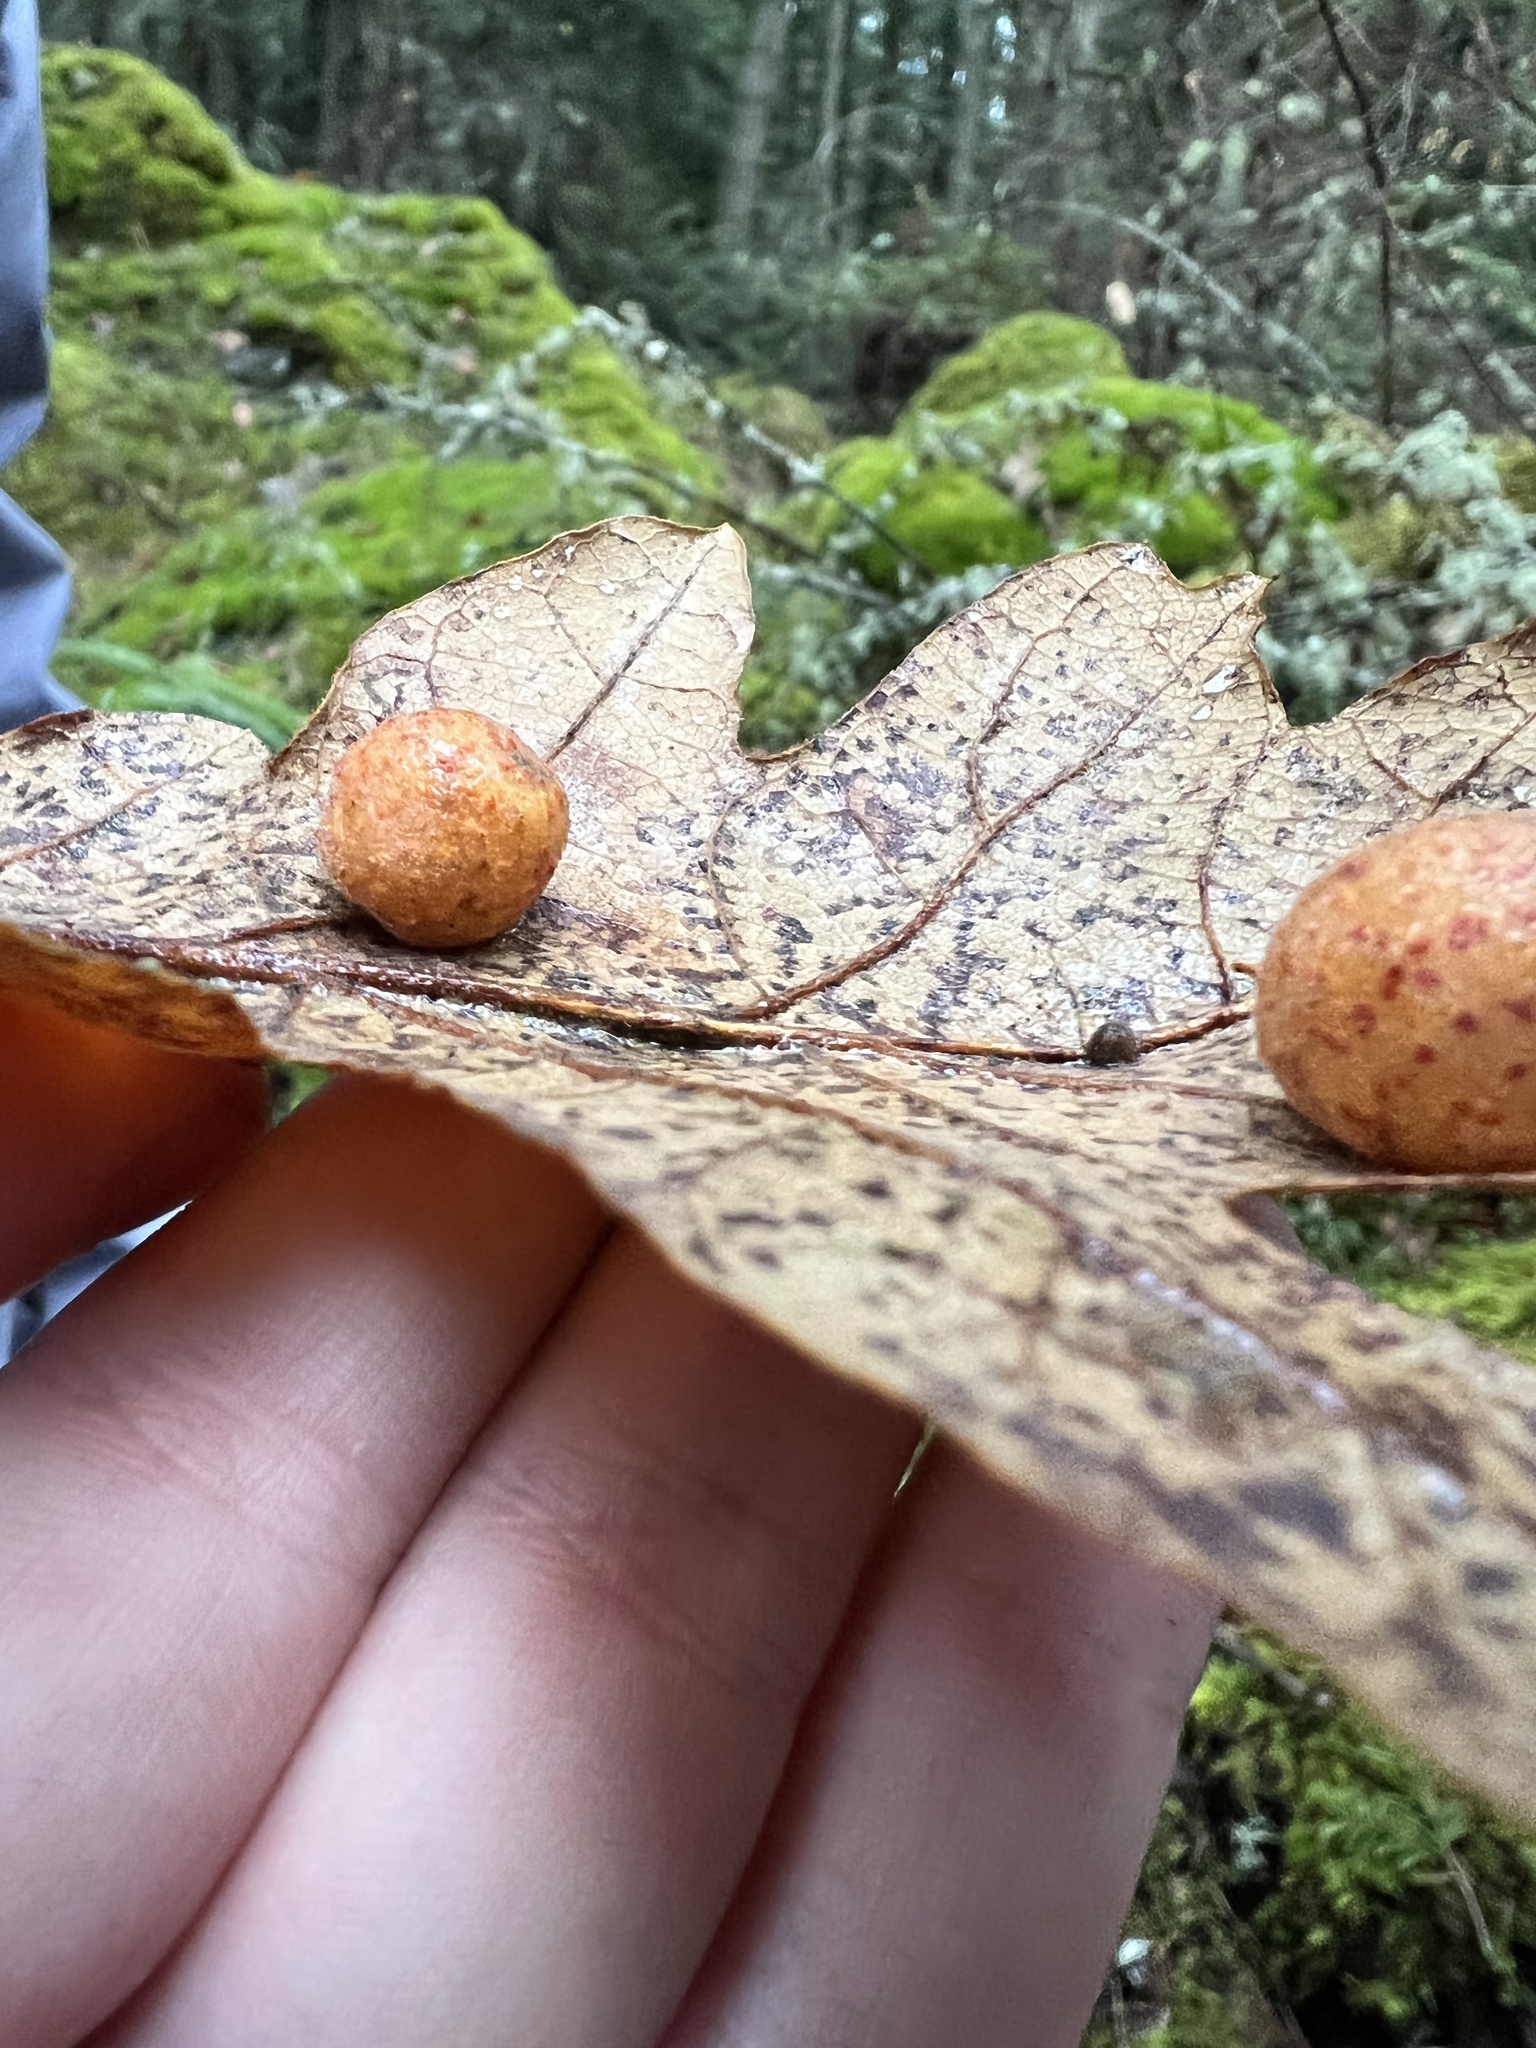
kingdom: Animalia
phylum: Arthropoda
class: Insecta
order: Hymenoptera
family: Cynipidae
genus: Cynips
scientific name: Cynips
